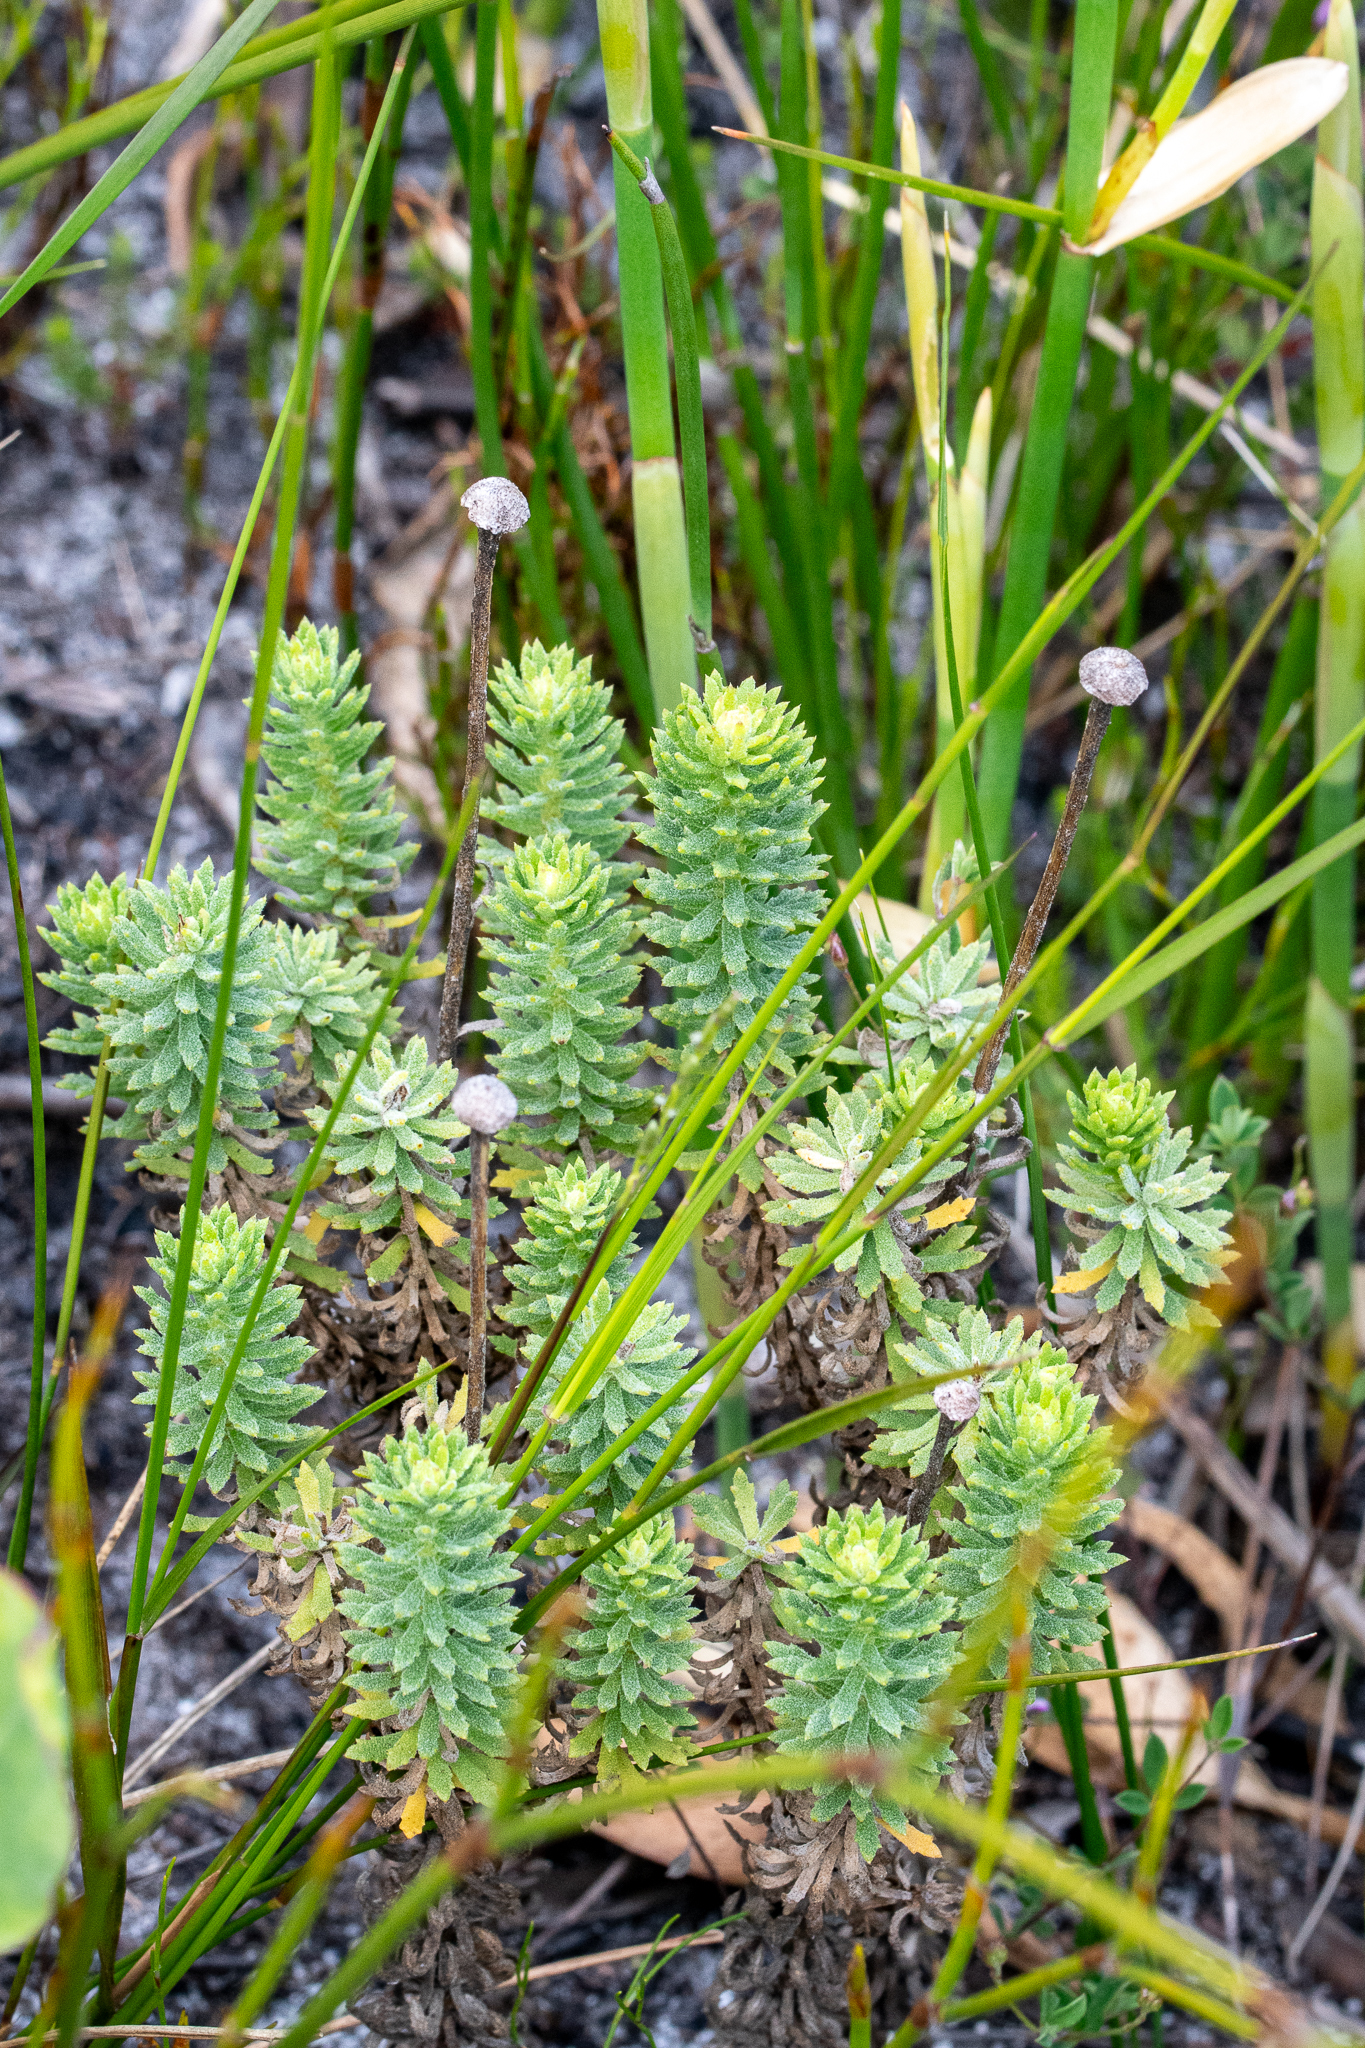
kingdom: Plantae
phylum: Tracheophyta
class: Magnoliopsida
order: Asterales
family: Asteraceae
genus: Osmitopsis
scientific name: Osmitopsis parvifolia
